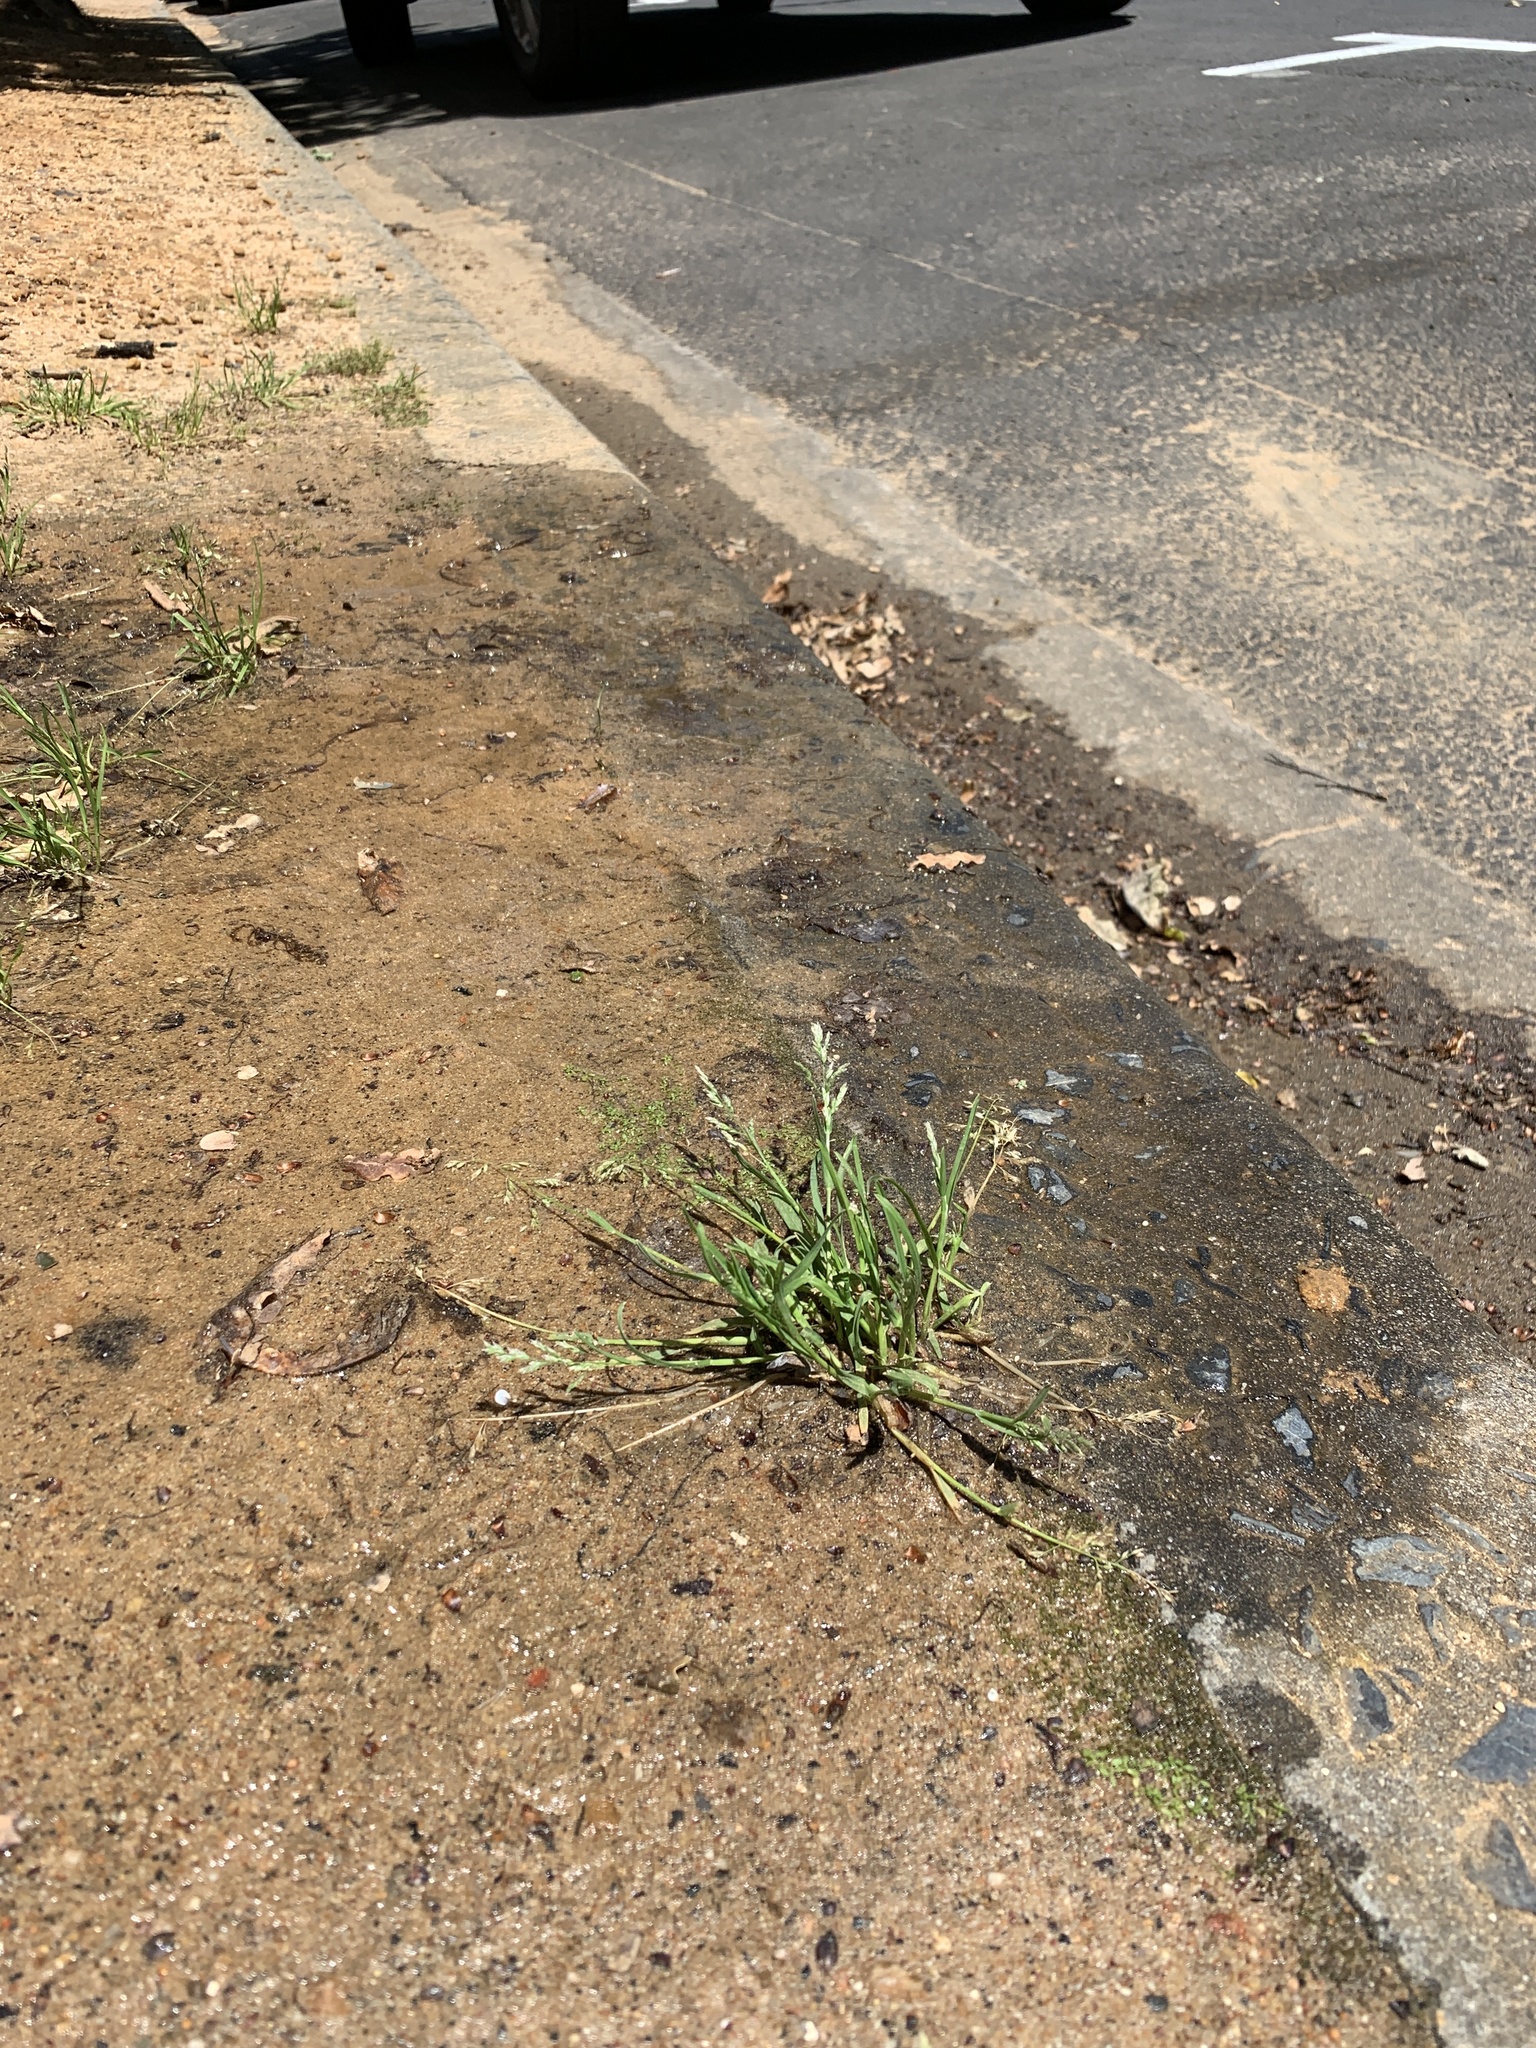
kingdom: Plantae
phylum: Tracheophyta
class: Liliopsida
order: Poales
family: Poaceae
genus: Poa
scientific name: Poa annua
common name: Annual bluegrass
